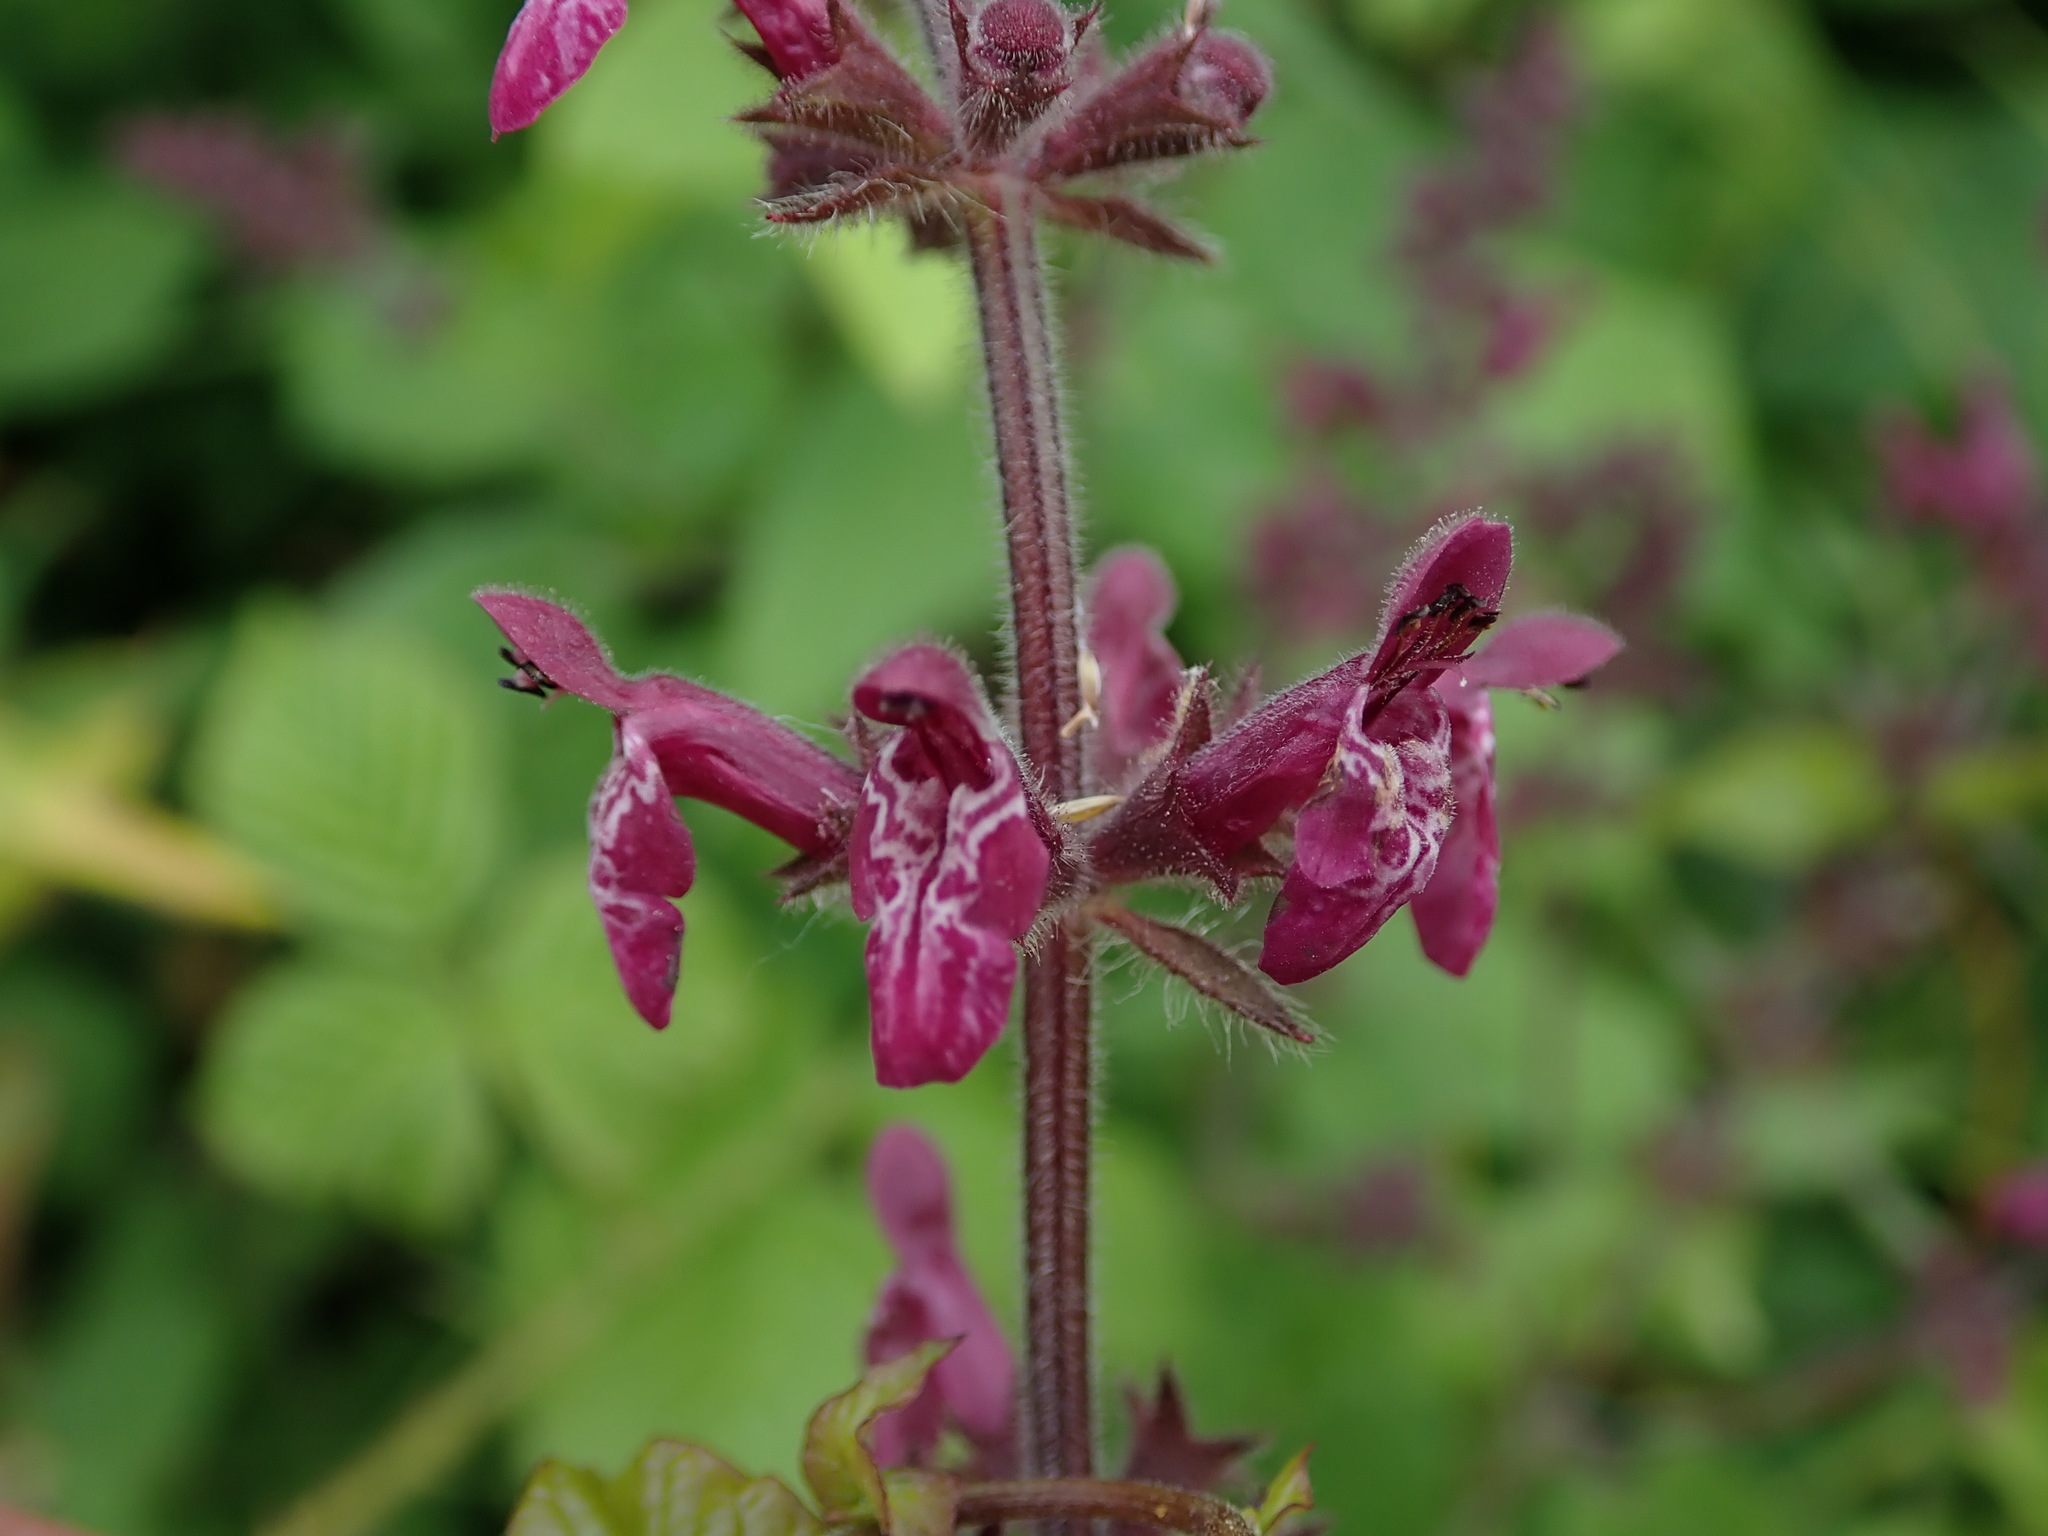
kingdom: Plantae
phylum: Tracheophyta
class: Magnoliopsida
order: Lamiales
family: Lamiaceae
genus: Stachys
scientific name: Stachys sylvatica
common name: Hedge woundwort
